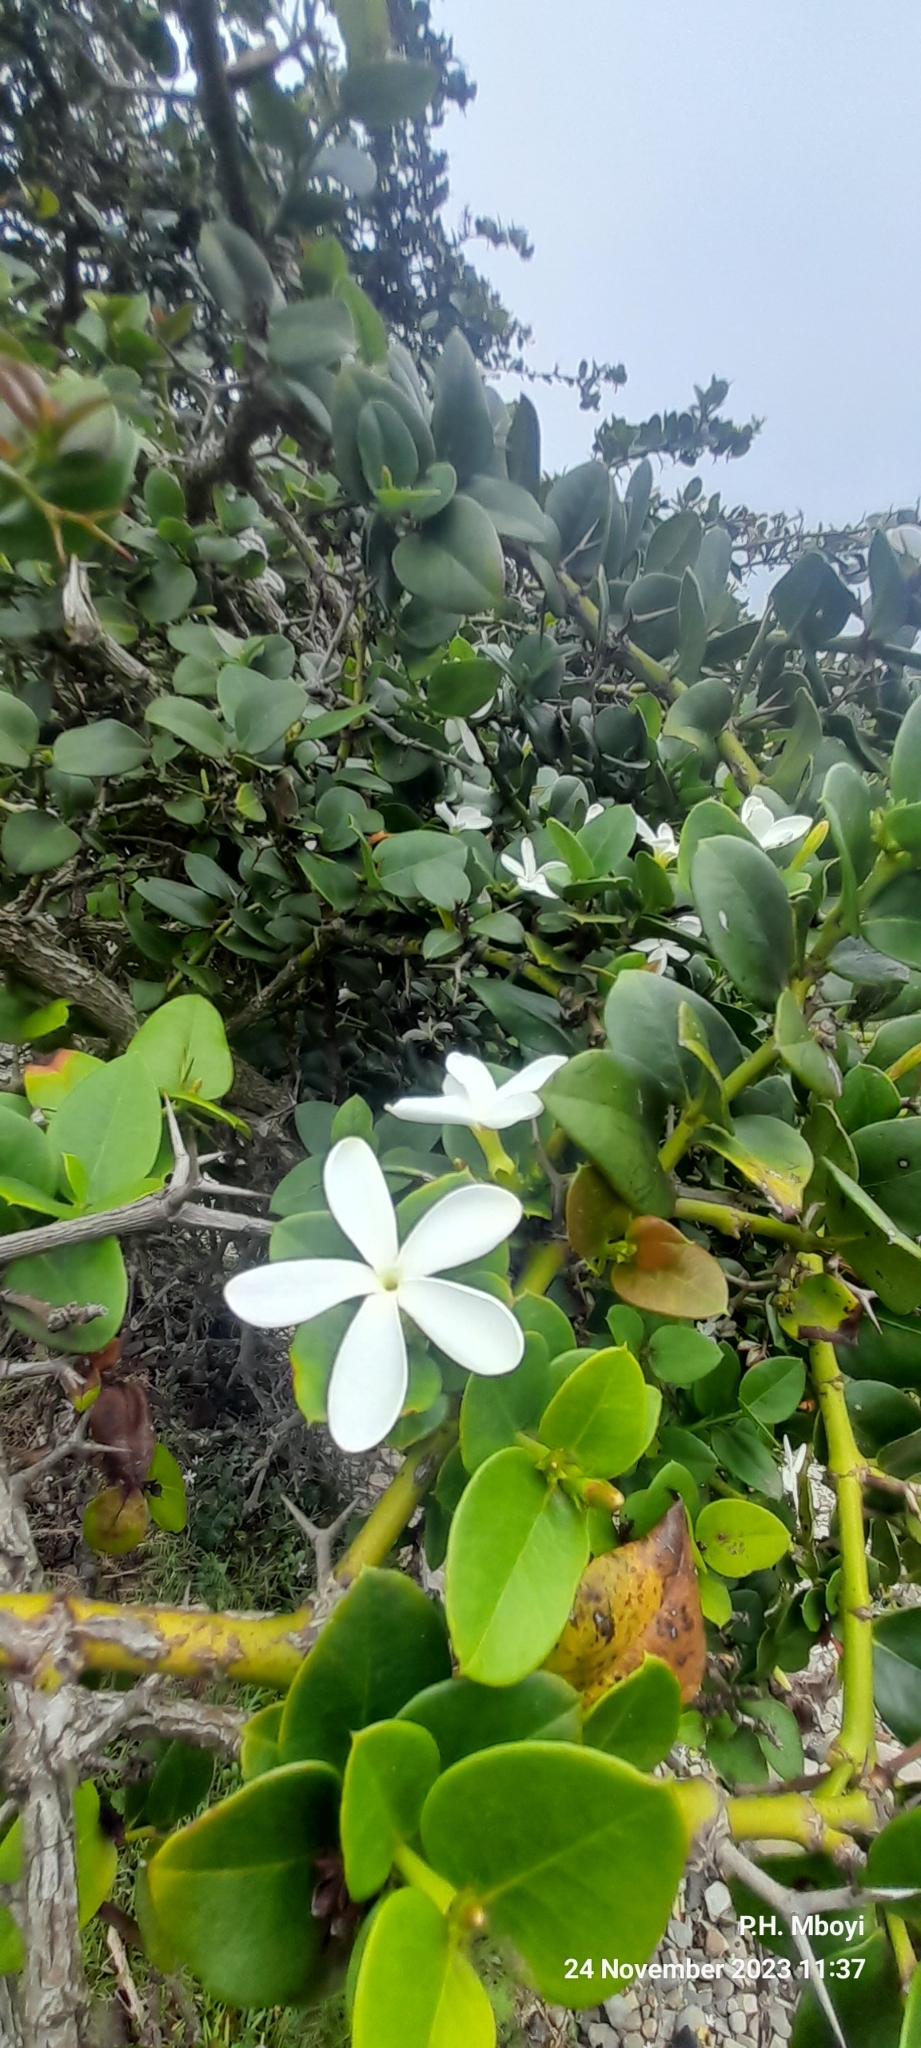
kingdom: Plantae
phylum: Tracheophyta
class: Magnoliopsida
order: Gentianales
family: Apocynaceae
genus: Carissa
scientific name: Carissa macrocarpa
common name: Natal plum
